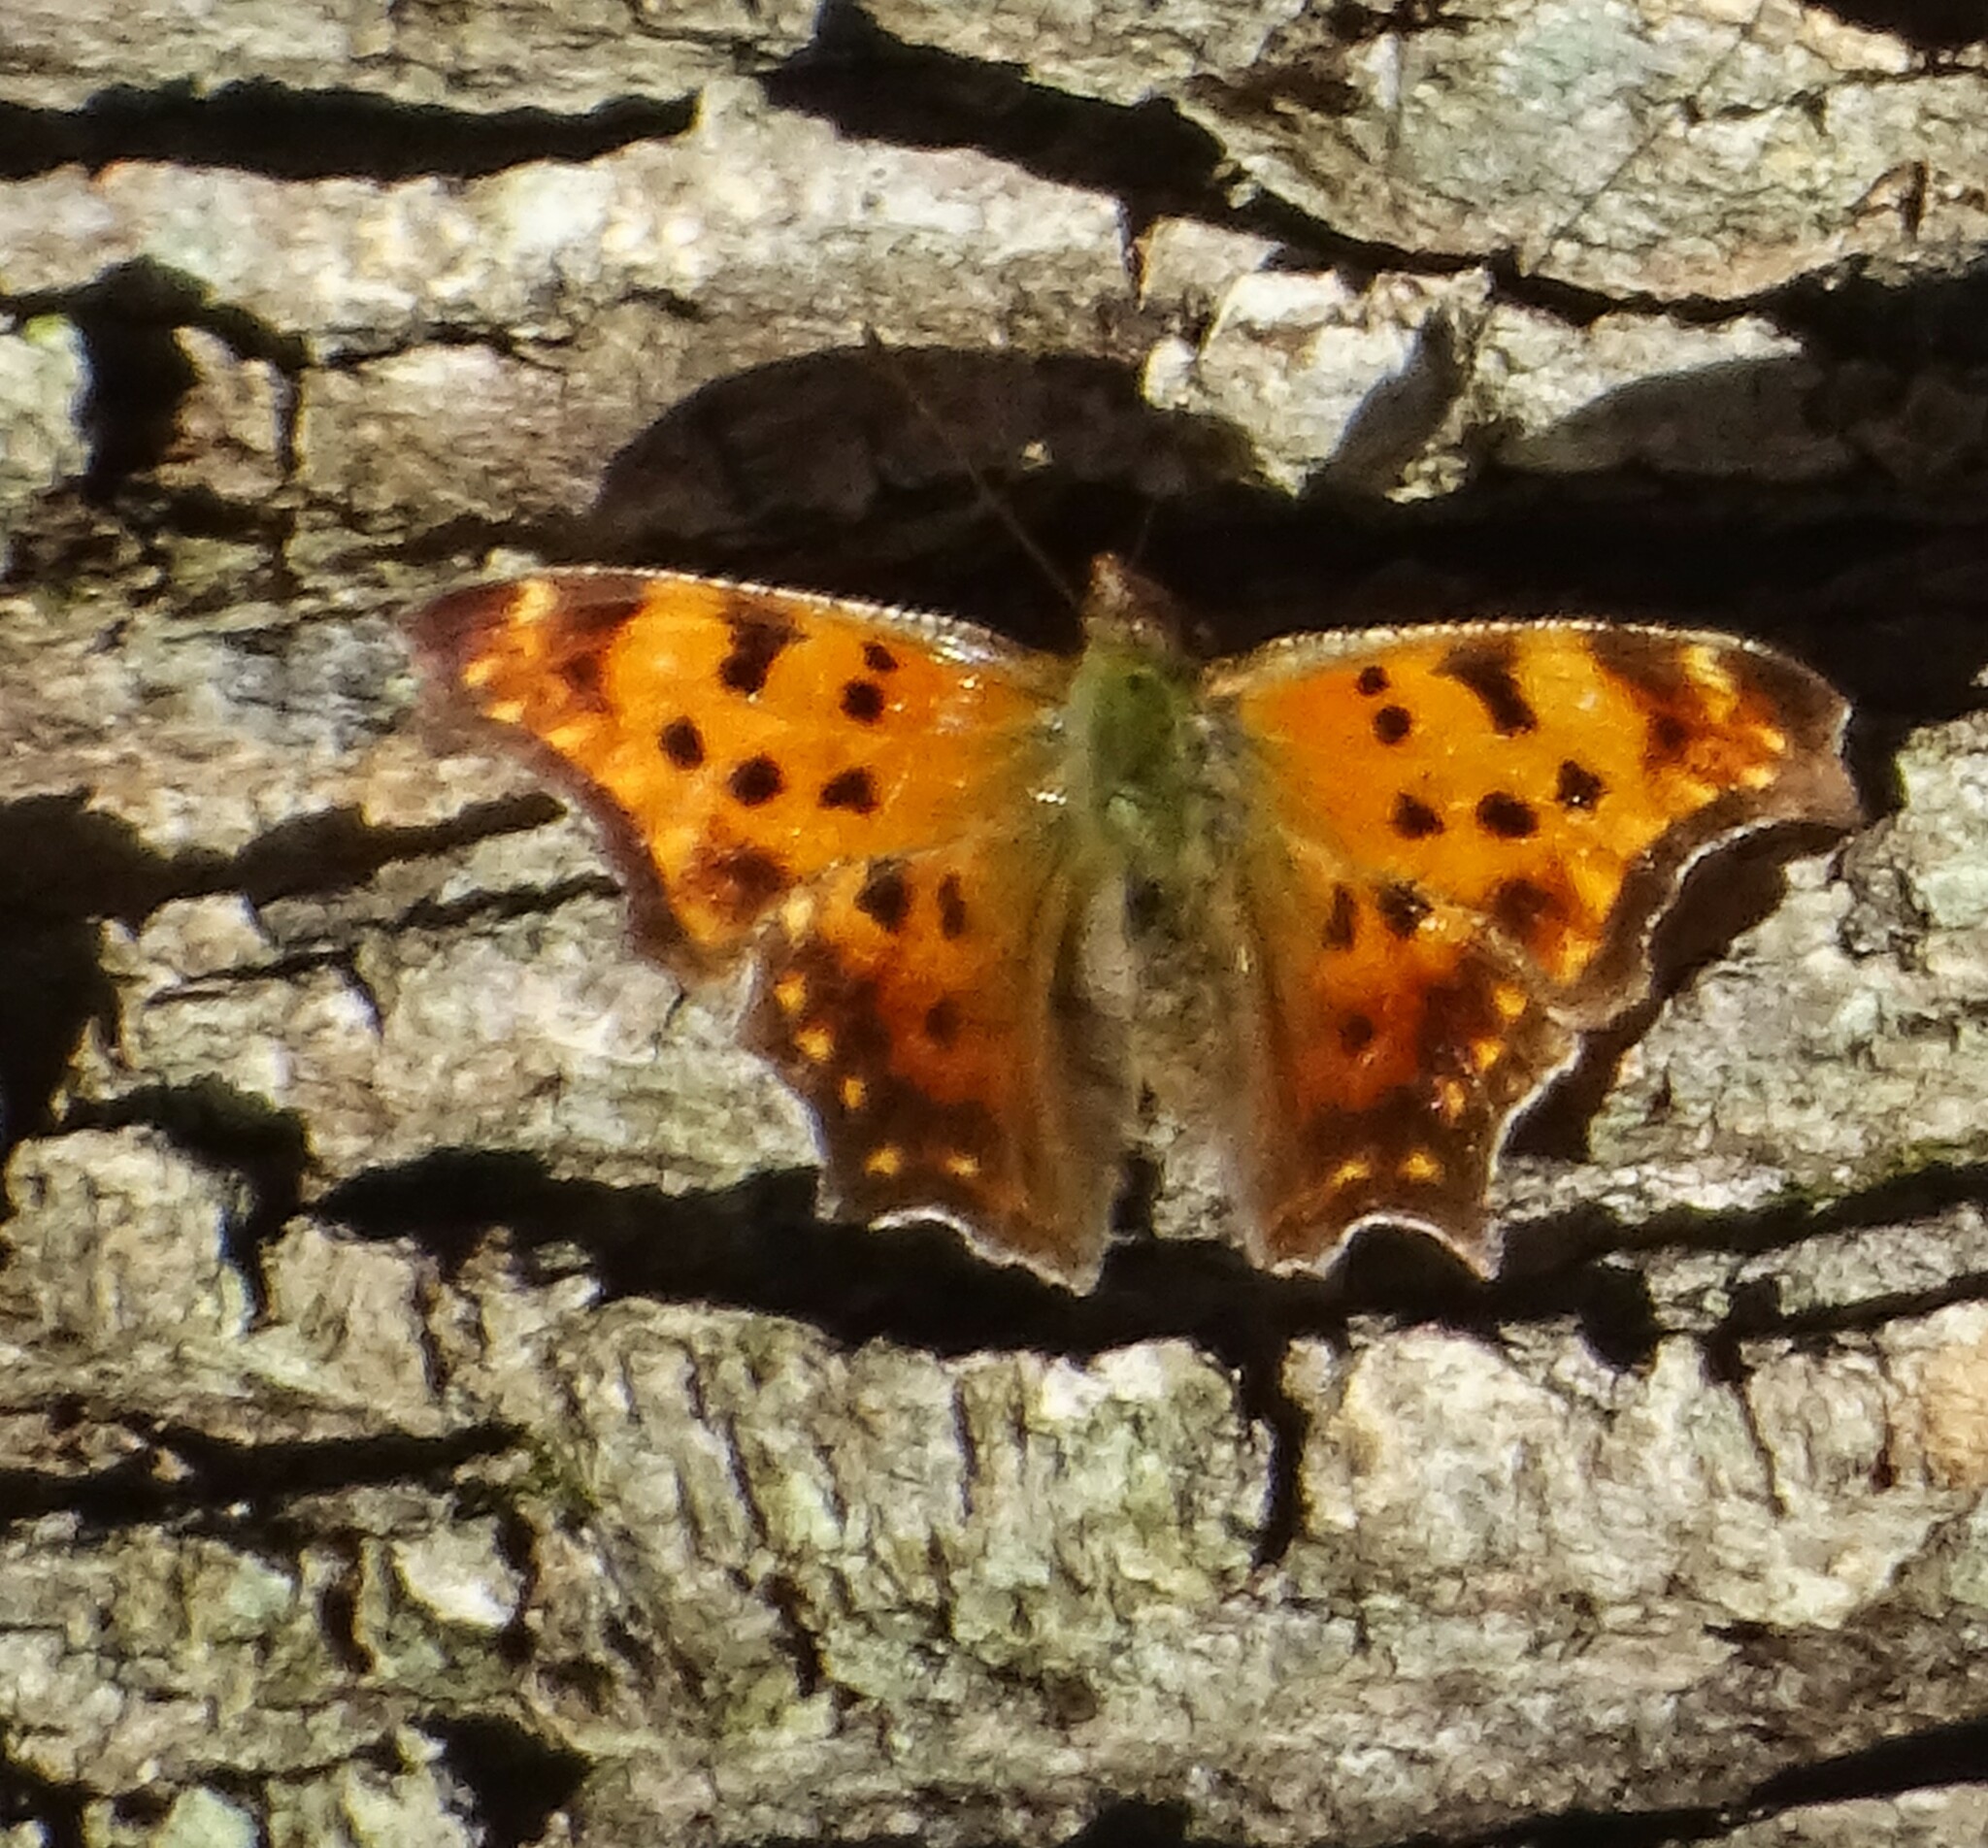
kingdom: Animalia
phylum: Arthropoda
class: Insecta
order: Lepidoptera
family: Nymphalidae
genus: Polygonia
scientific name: Polygonia comma
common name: Eastern comma
